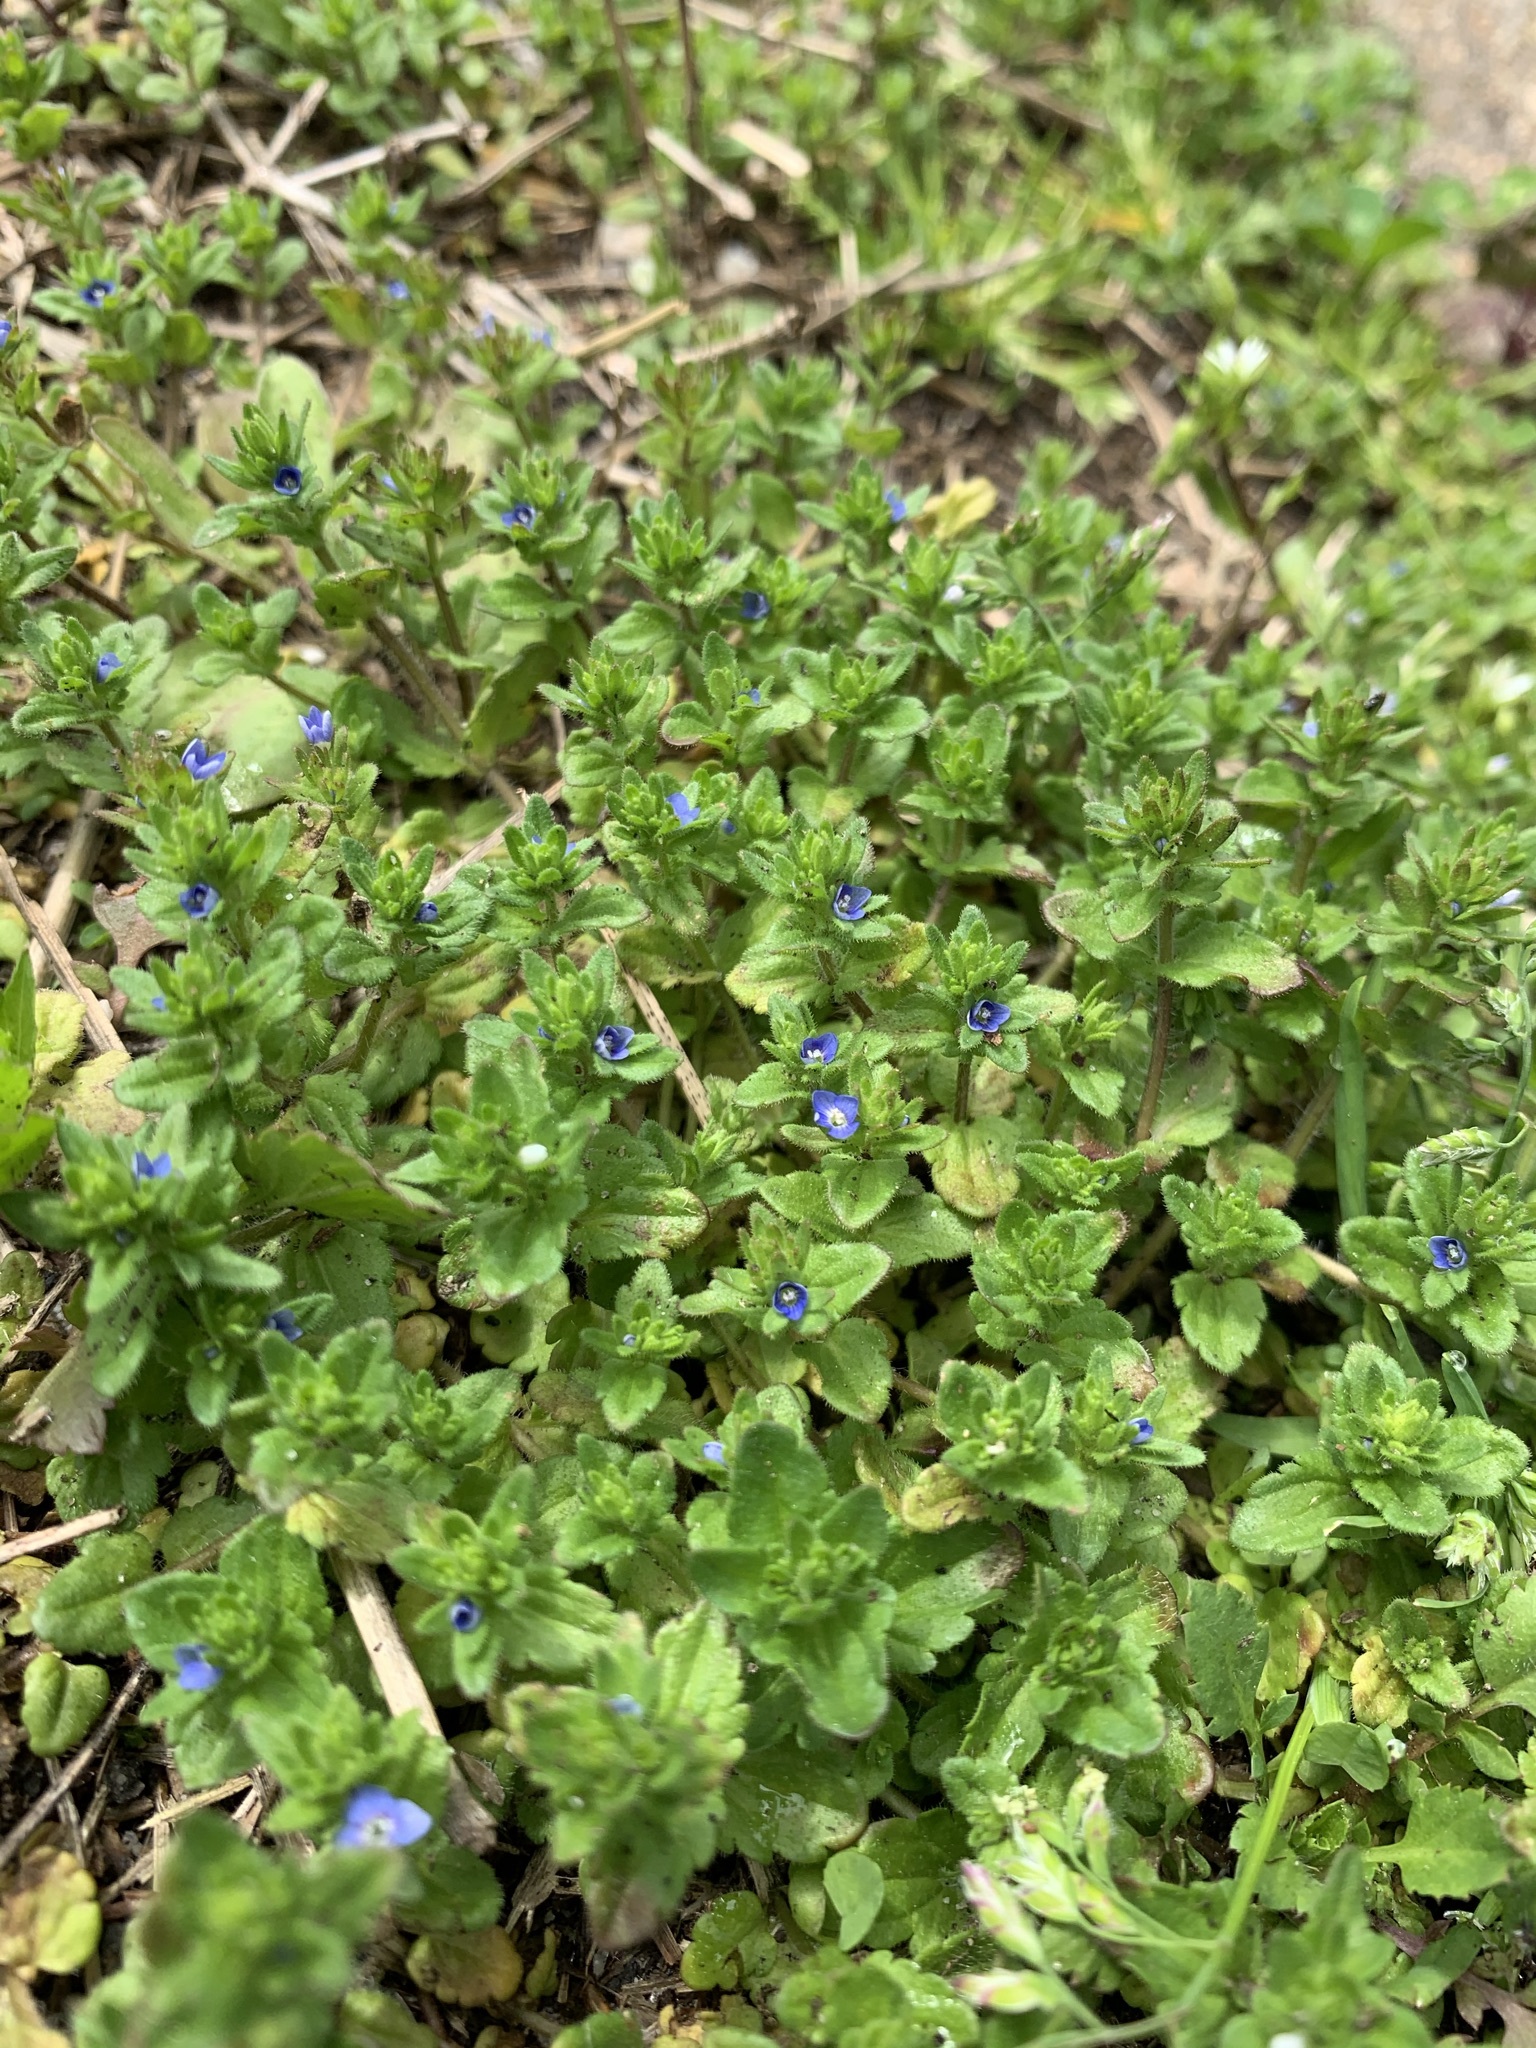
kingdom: Plantae
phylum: Tracheophyta
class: Magnoliopsida
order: Lamiales
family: Plantaginaceae
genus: Veronica
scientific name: Veronica arvensis
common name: Corn speedwell
